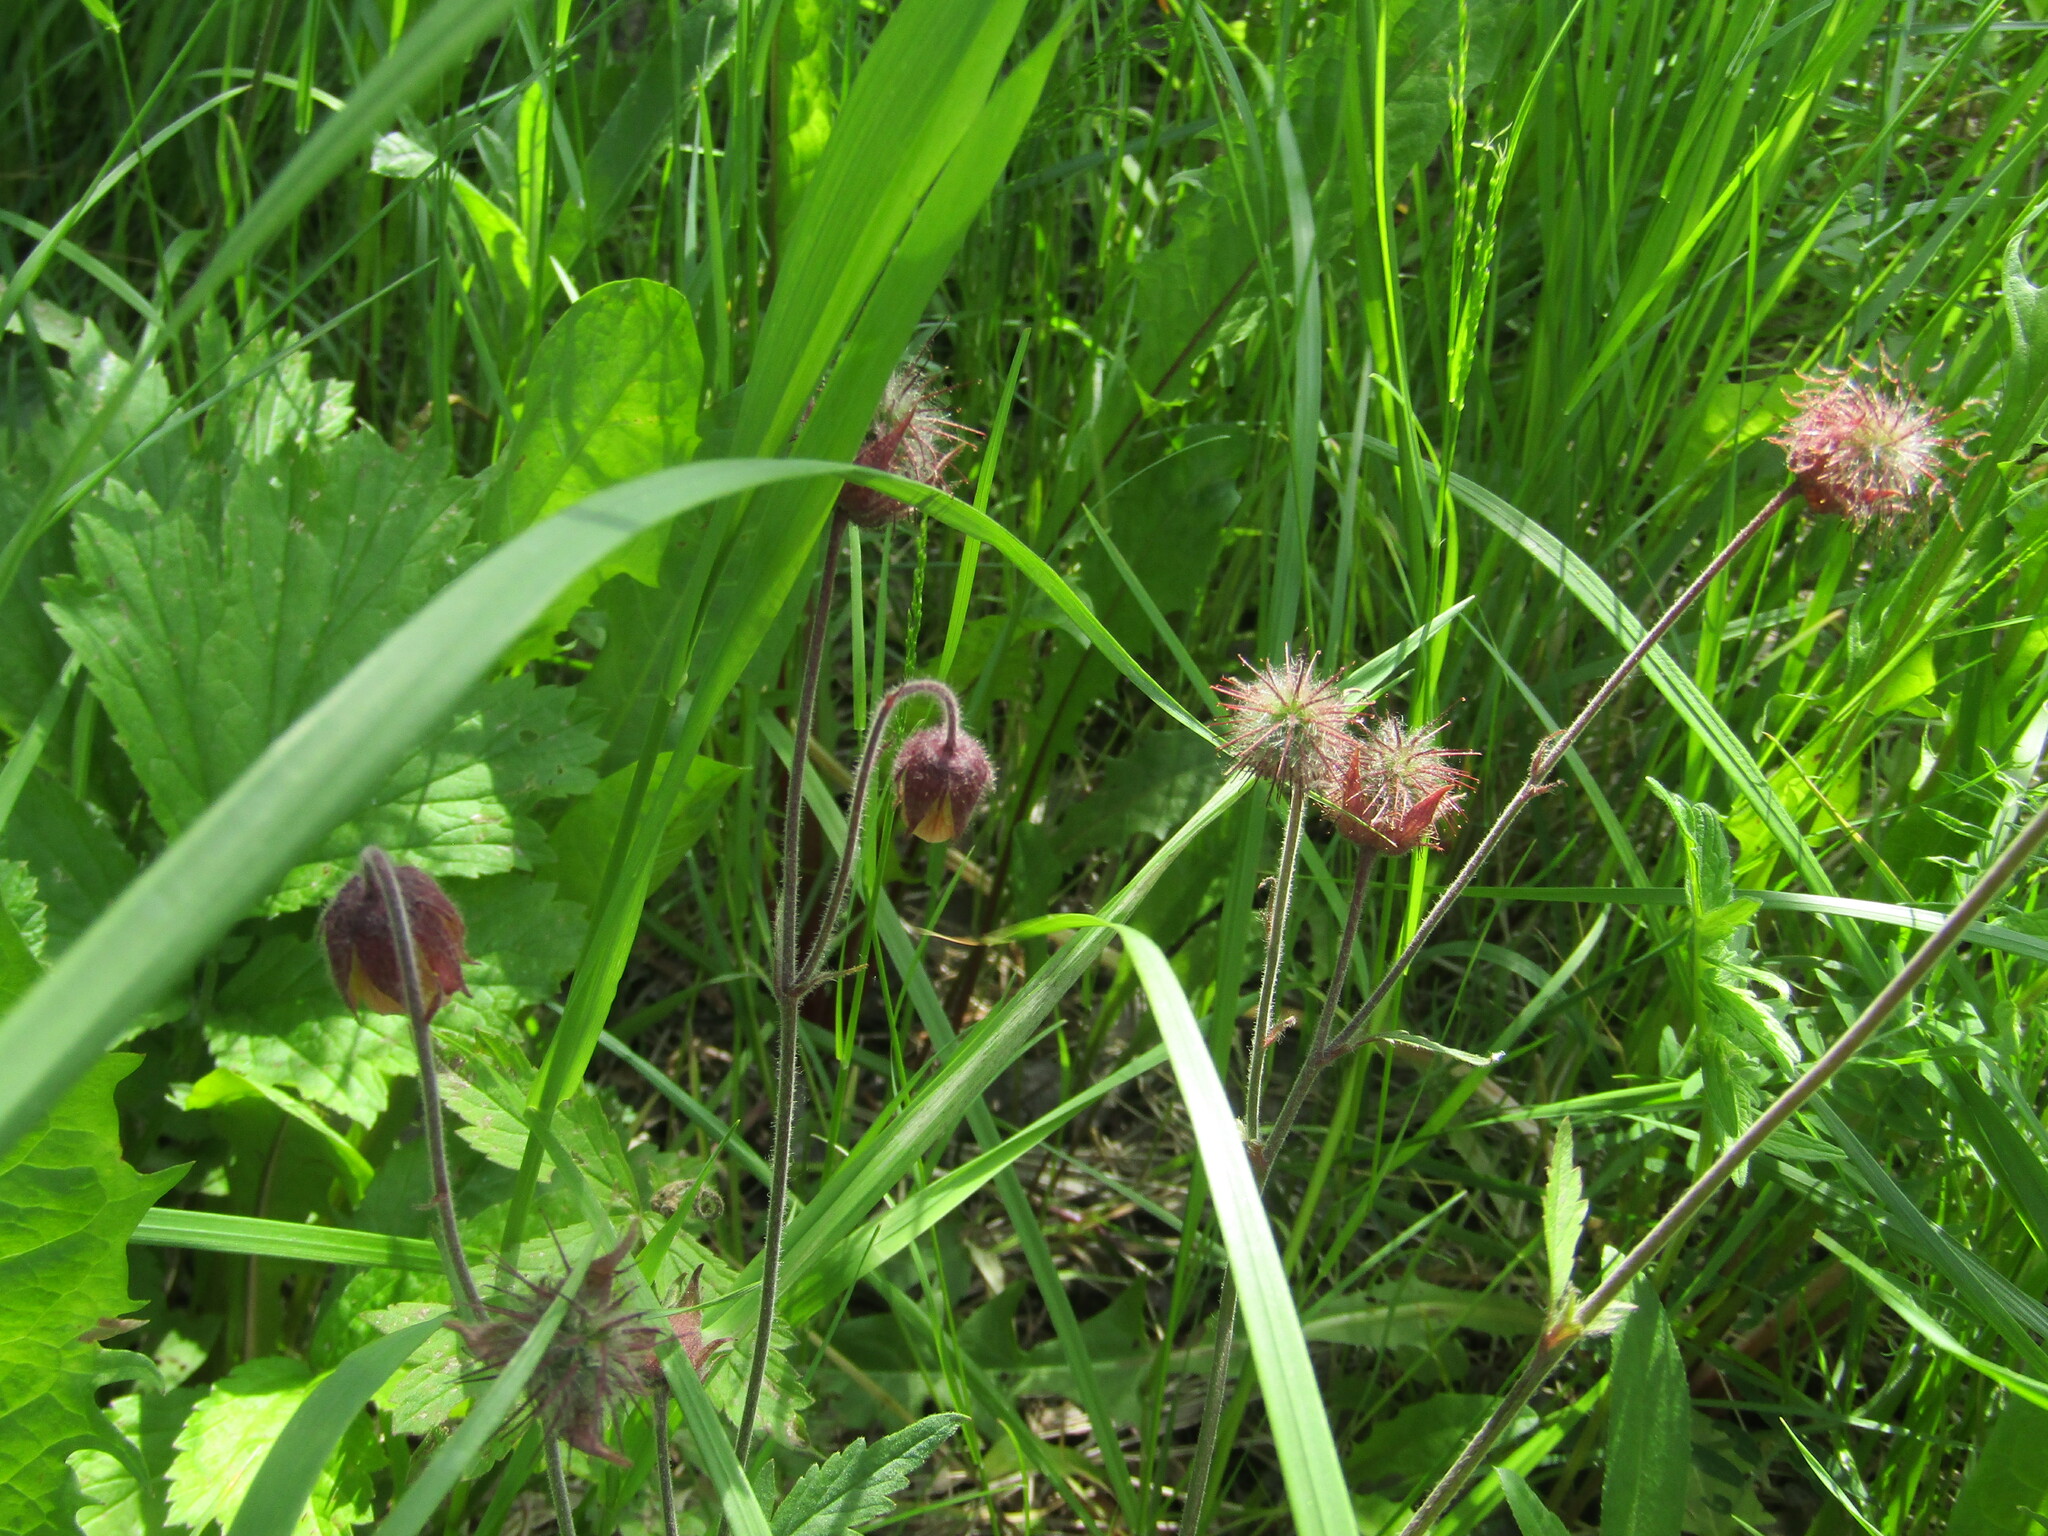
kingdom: Plantae
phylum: Tracheophyta
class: Magnoliopsida
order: Rosales
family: Rosaceae
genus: Geum
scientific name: Geum rivale
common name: Water avens
